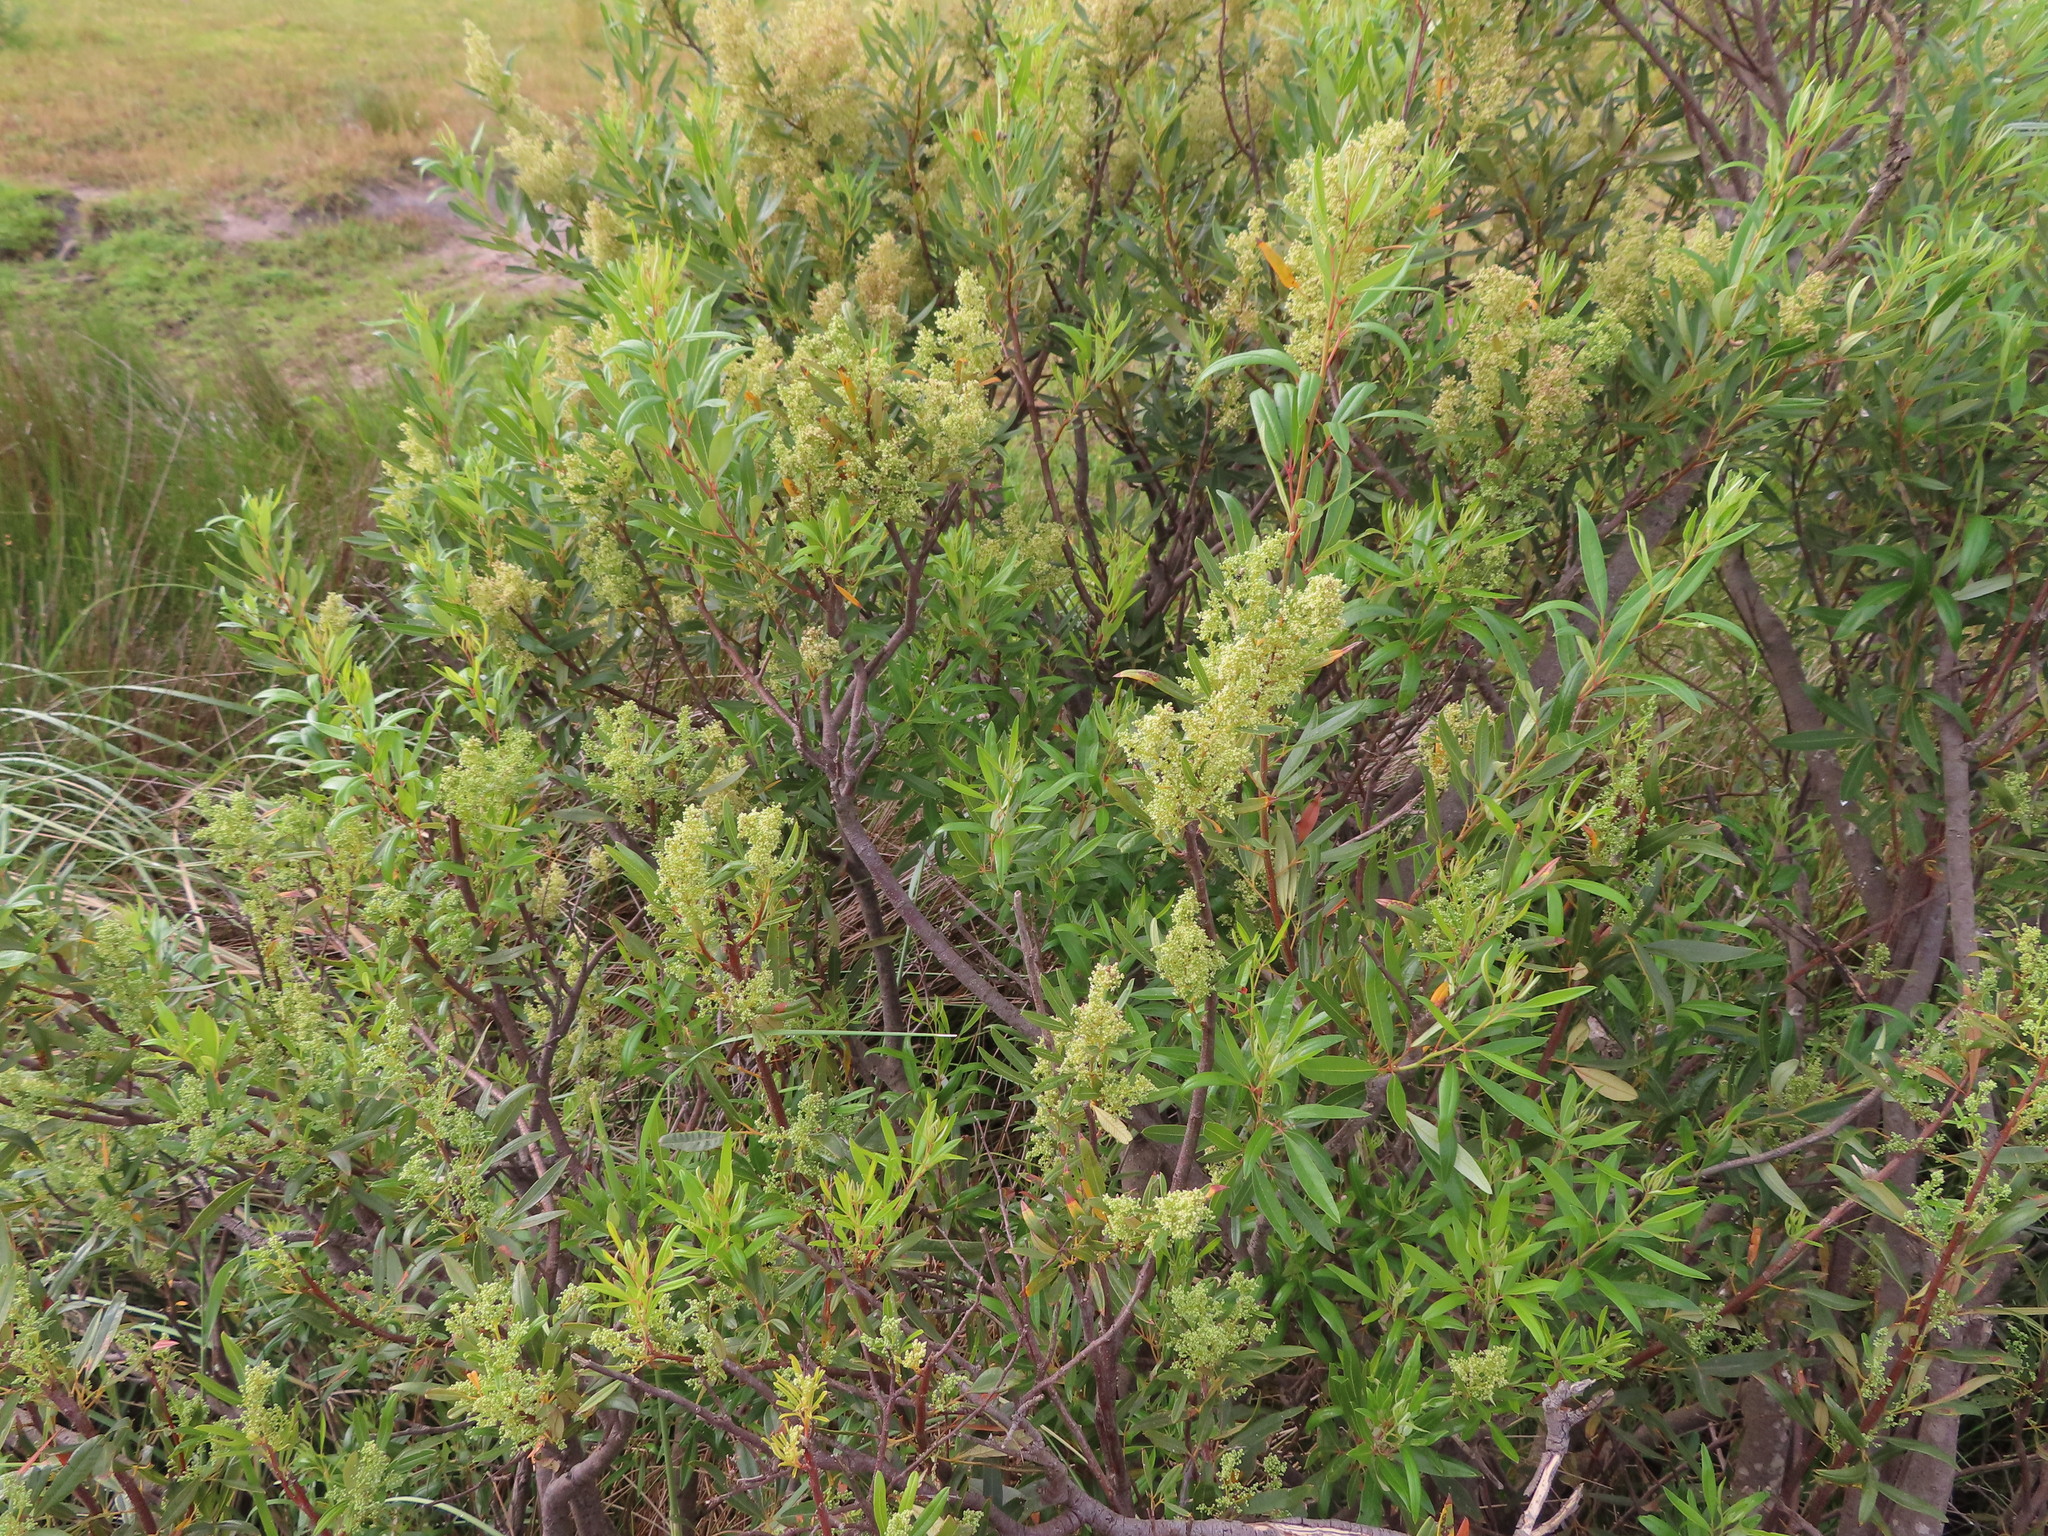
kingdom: Plantae
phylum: Tracheophyta
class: Magnoliopsida
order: Sapindales
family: Anacardiaceae
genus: Searsia
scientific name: Searsia angustifolia
